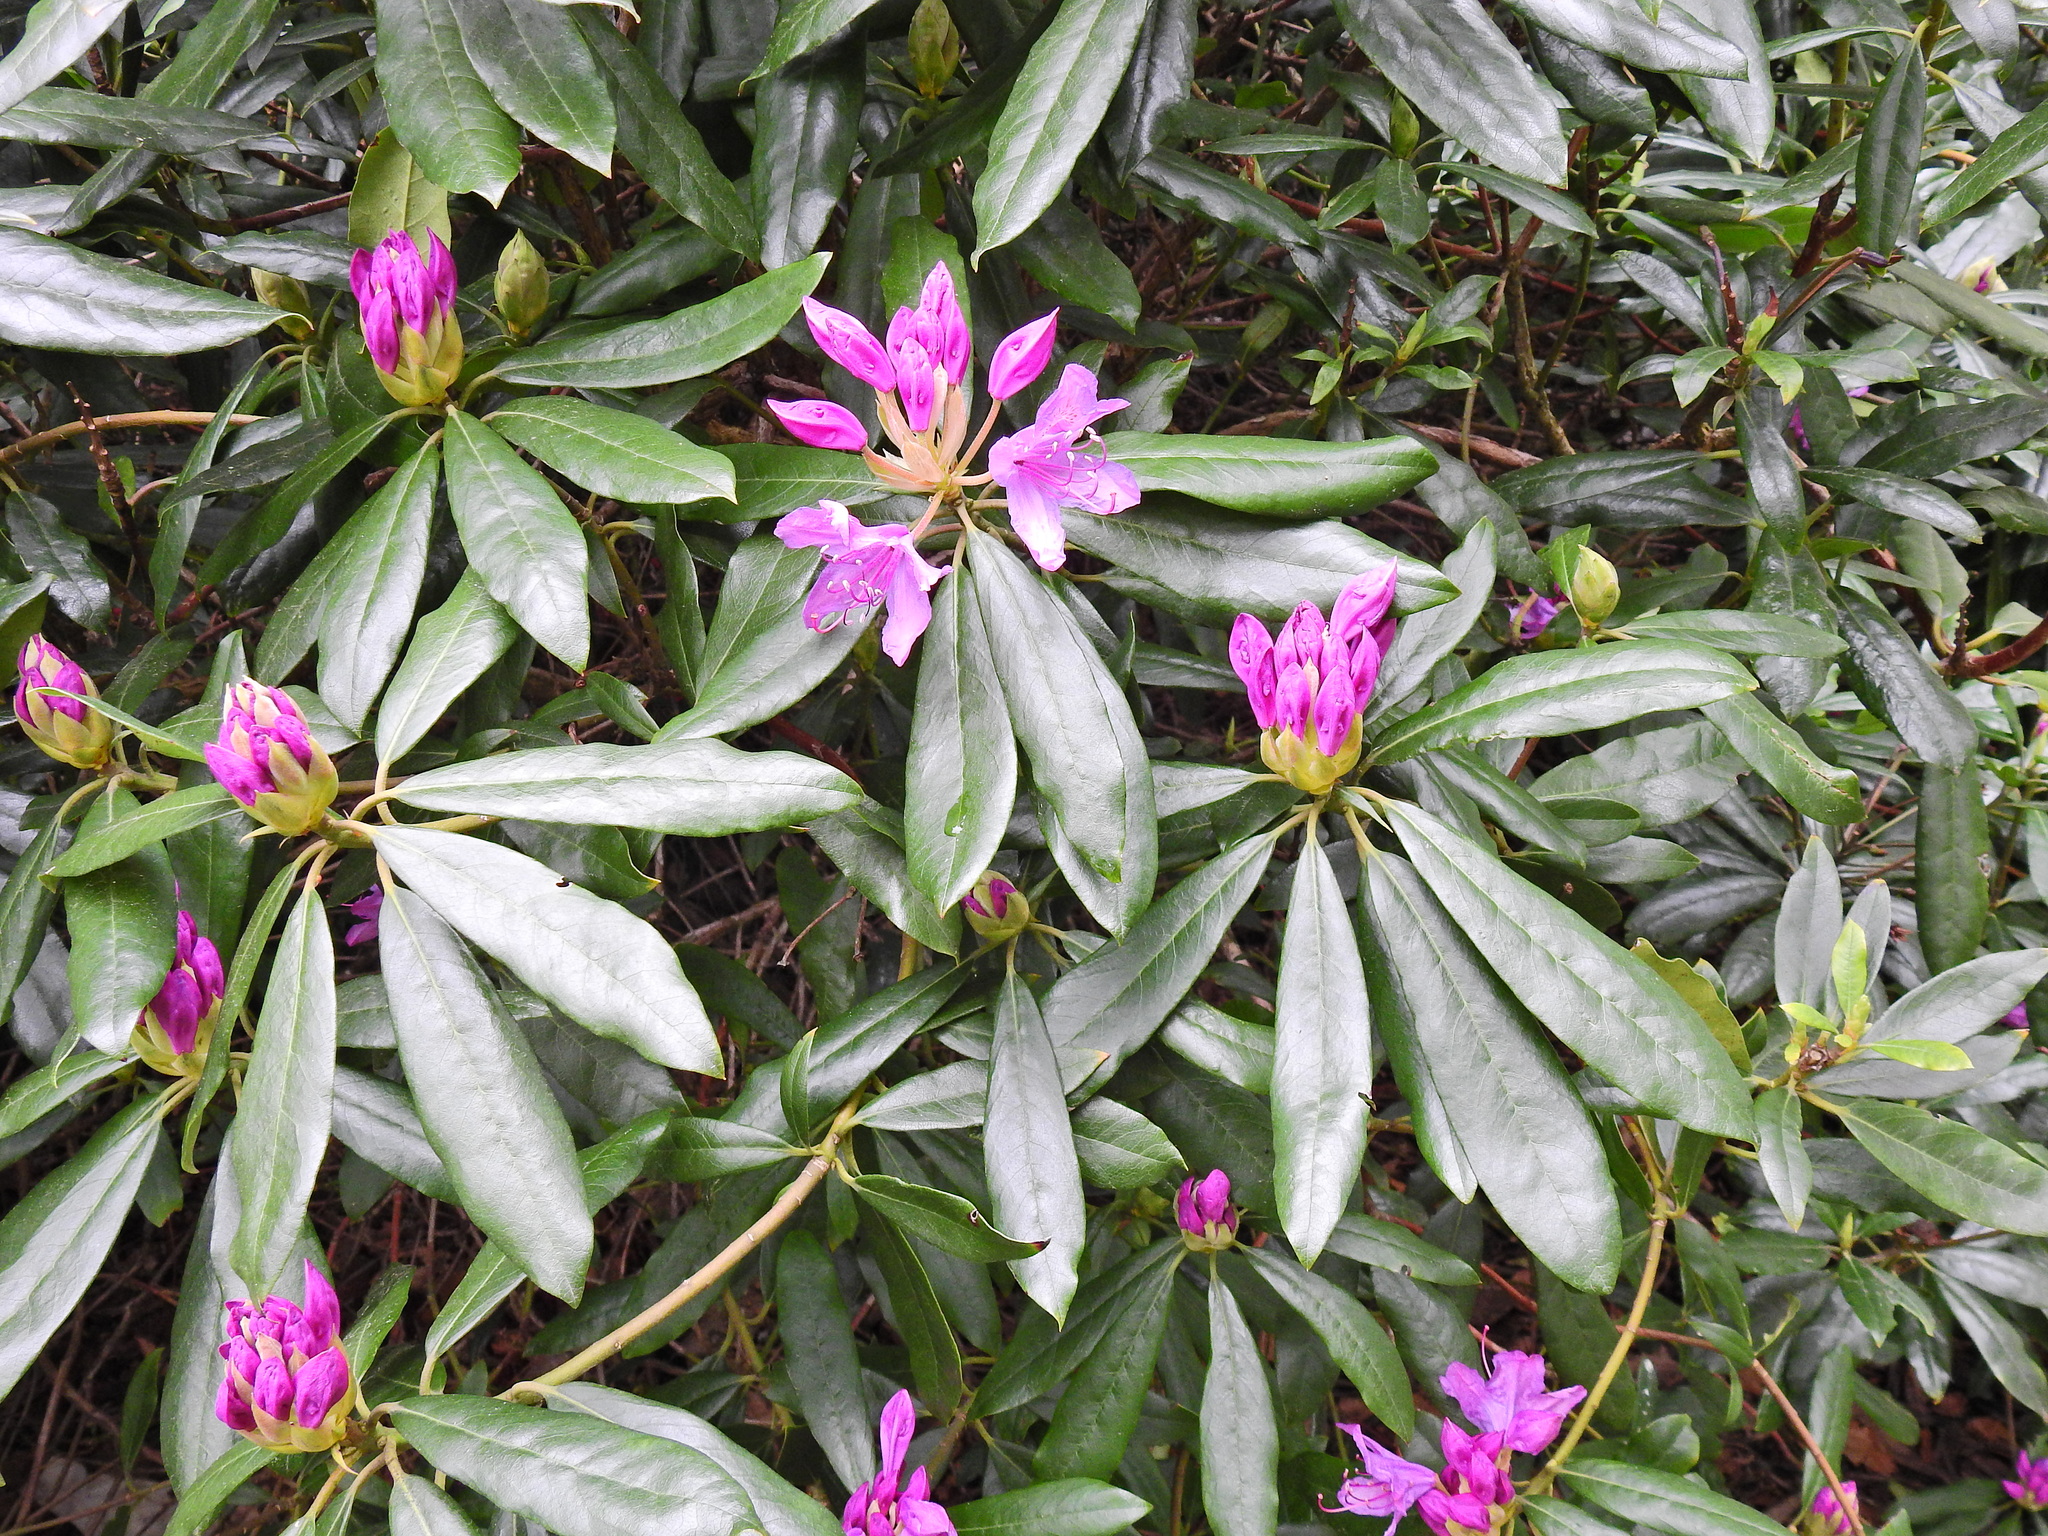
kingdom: Plantae
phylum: Tracheophyta
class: Magnoliopsida
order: Ericales
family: Ericaceae
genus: Rhododendron
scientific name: Rhododendron ponticum
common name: Rhododendron
